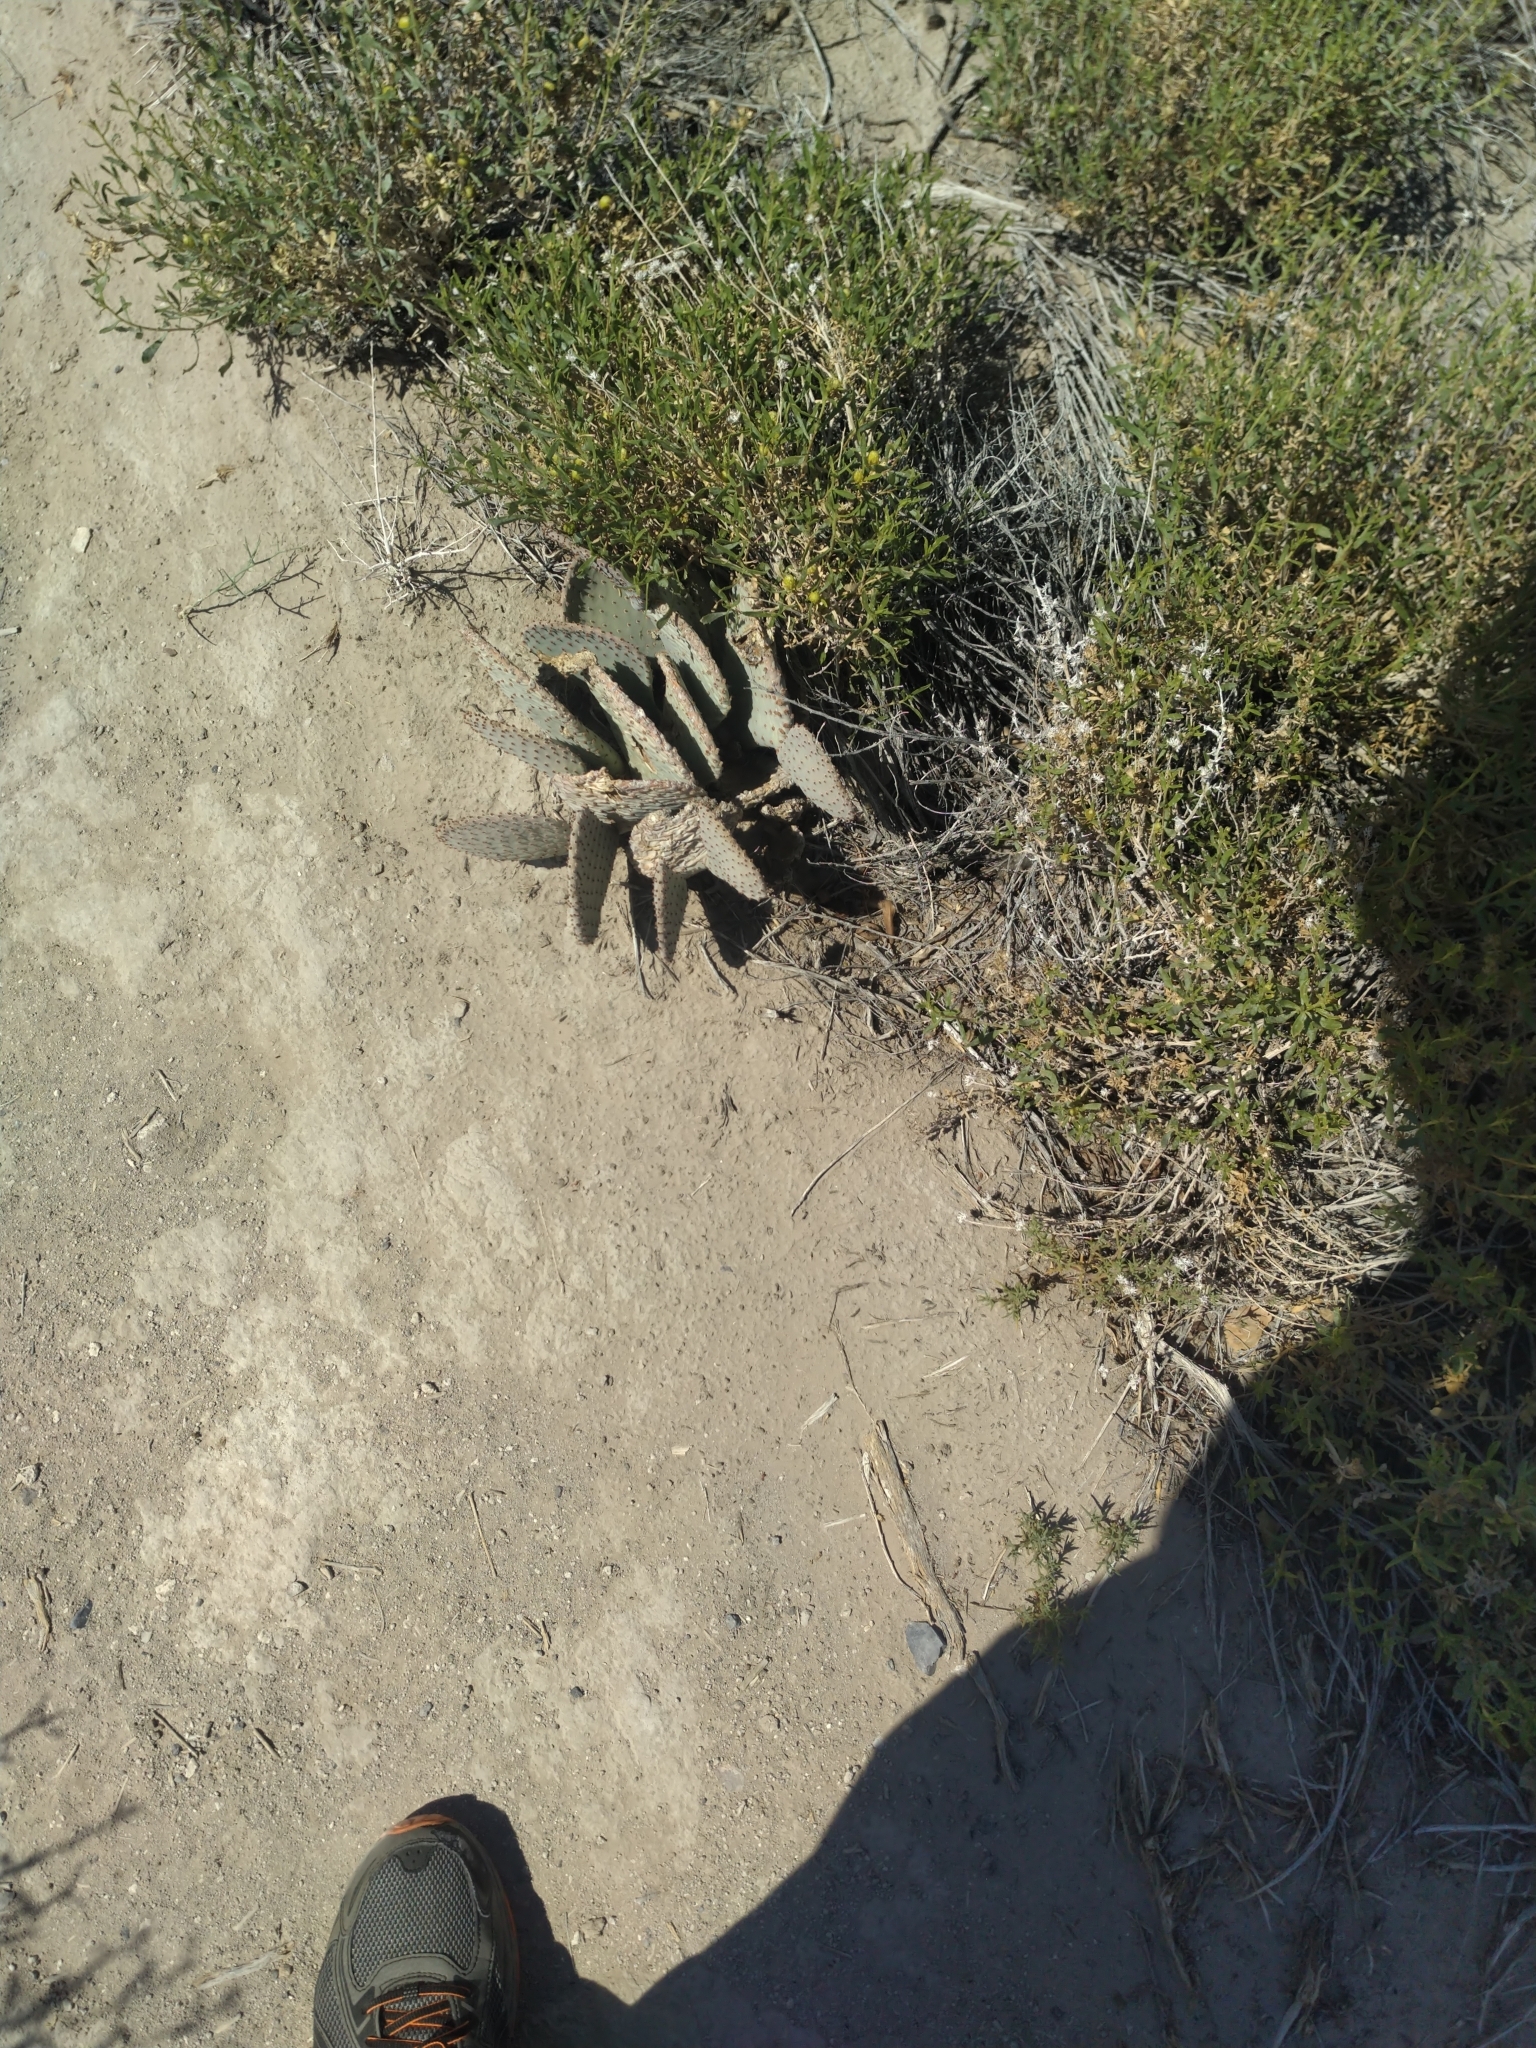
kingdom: Plantae
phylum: Tracheophyta
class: Magnoliopsida
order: Caryophyllales
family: Cactaceae
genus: Opuntia
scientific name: Opuntia basilaris
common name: Beavertail prickly-pear
